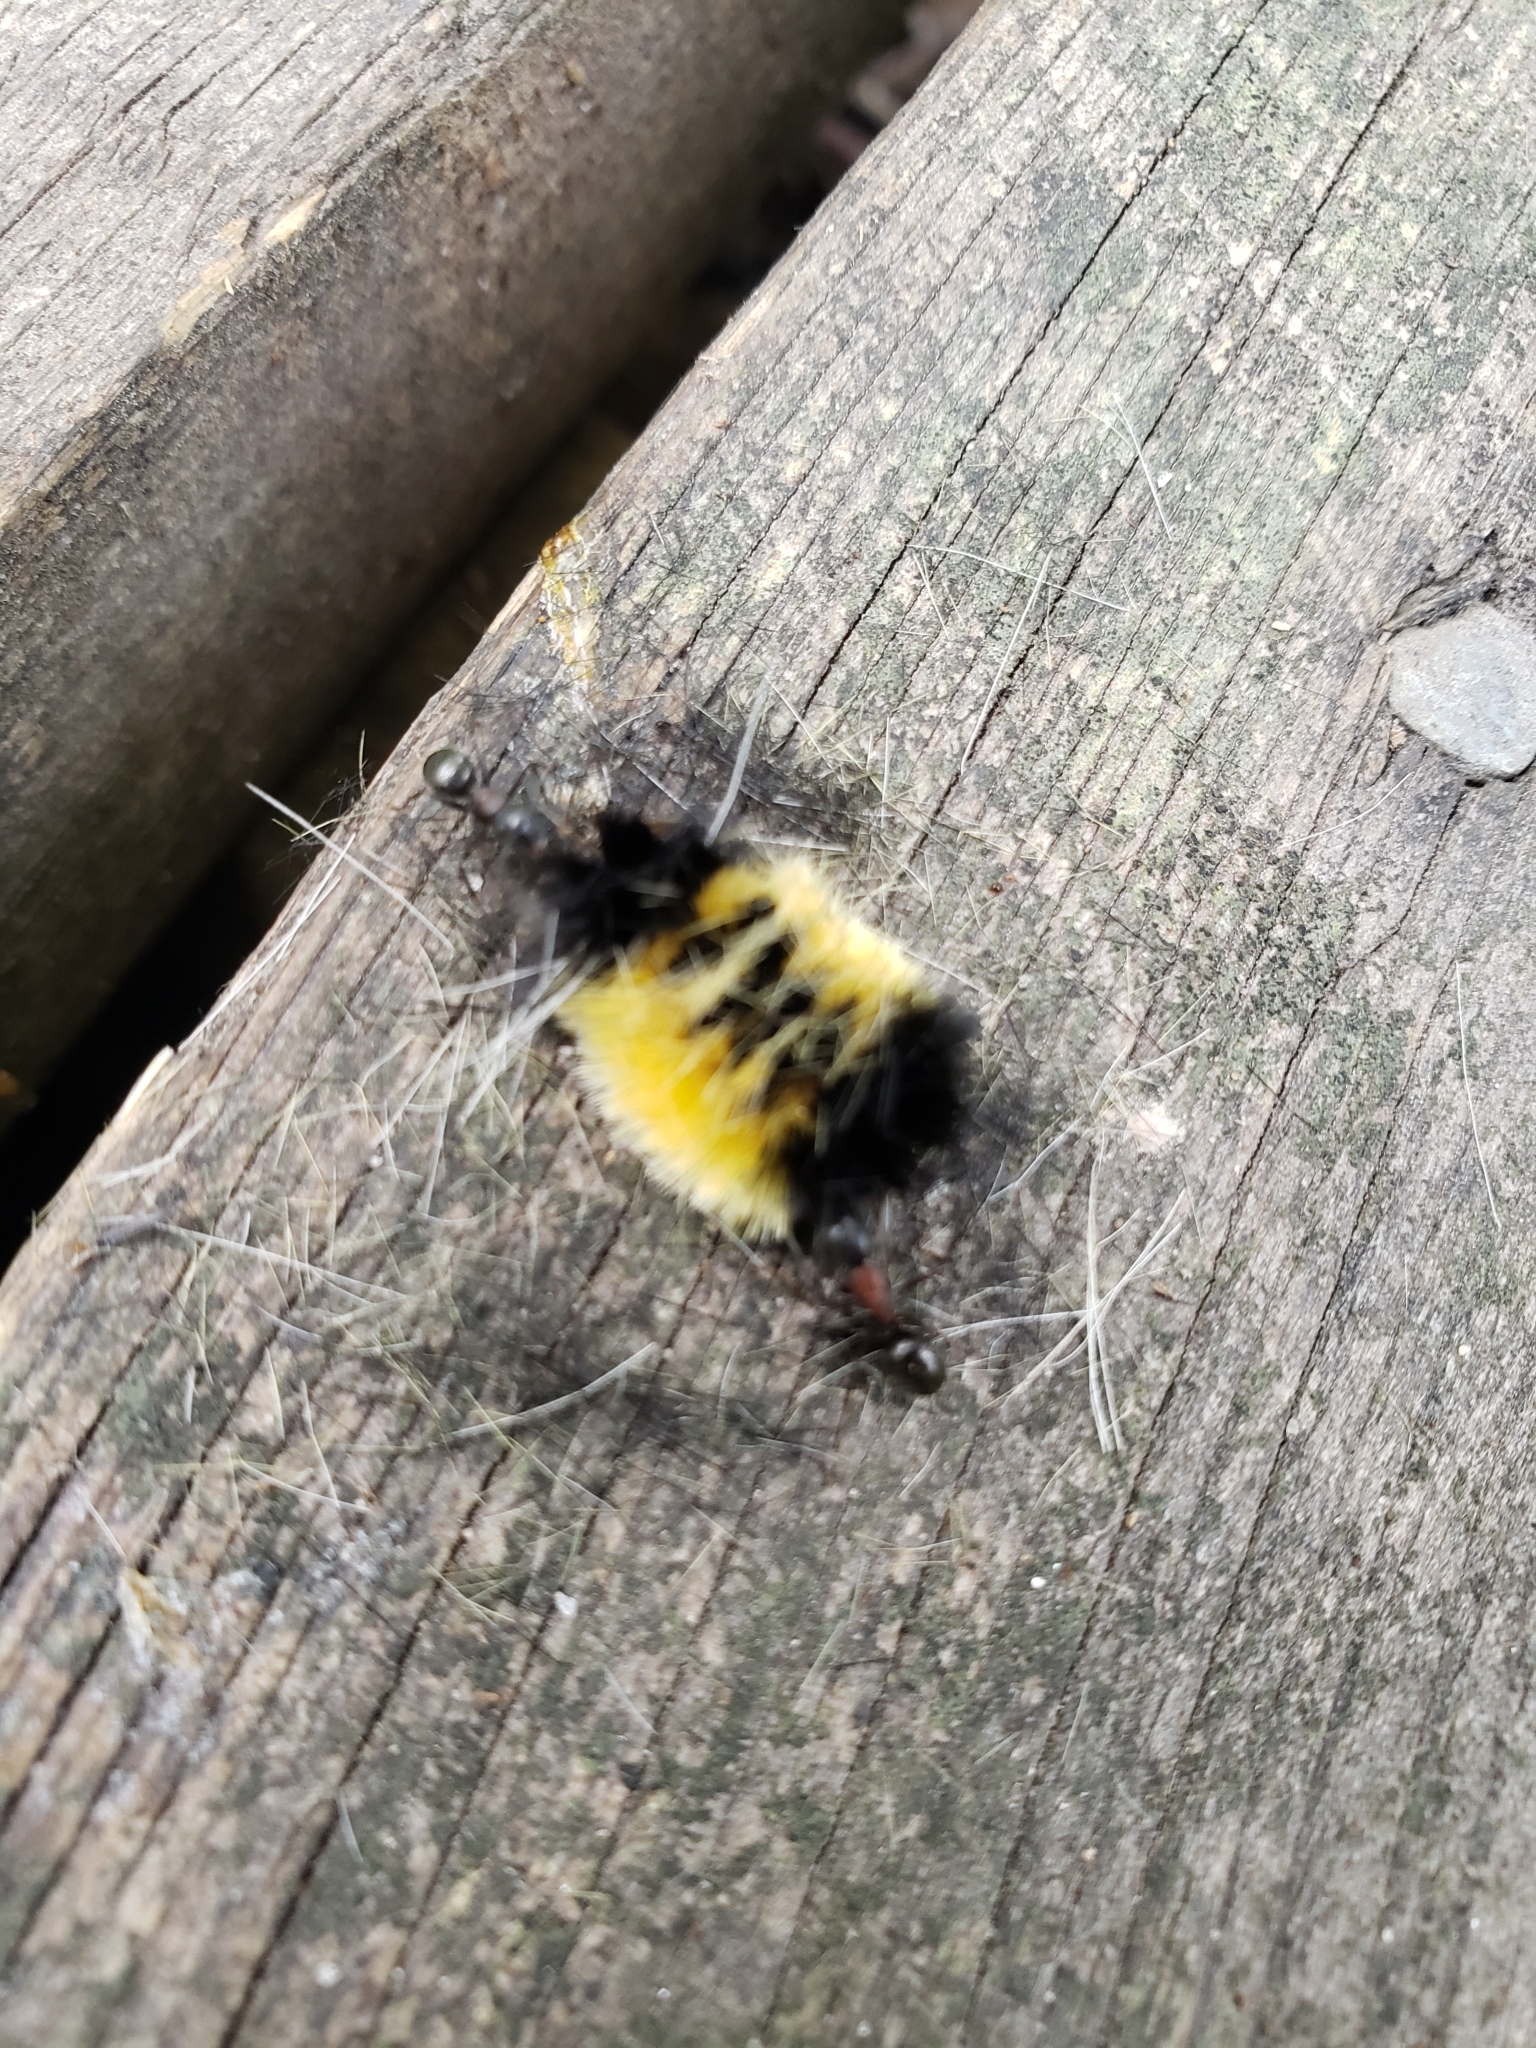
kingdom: Animalia
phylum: Arthropoda
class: Insecta
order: Lepidoptera
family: Erebidae
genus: Lophocampa
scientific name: Lophocampa maculata
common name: Spotted tussock moth
